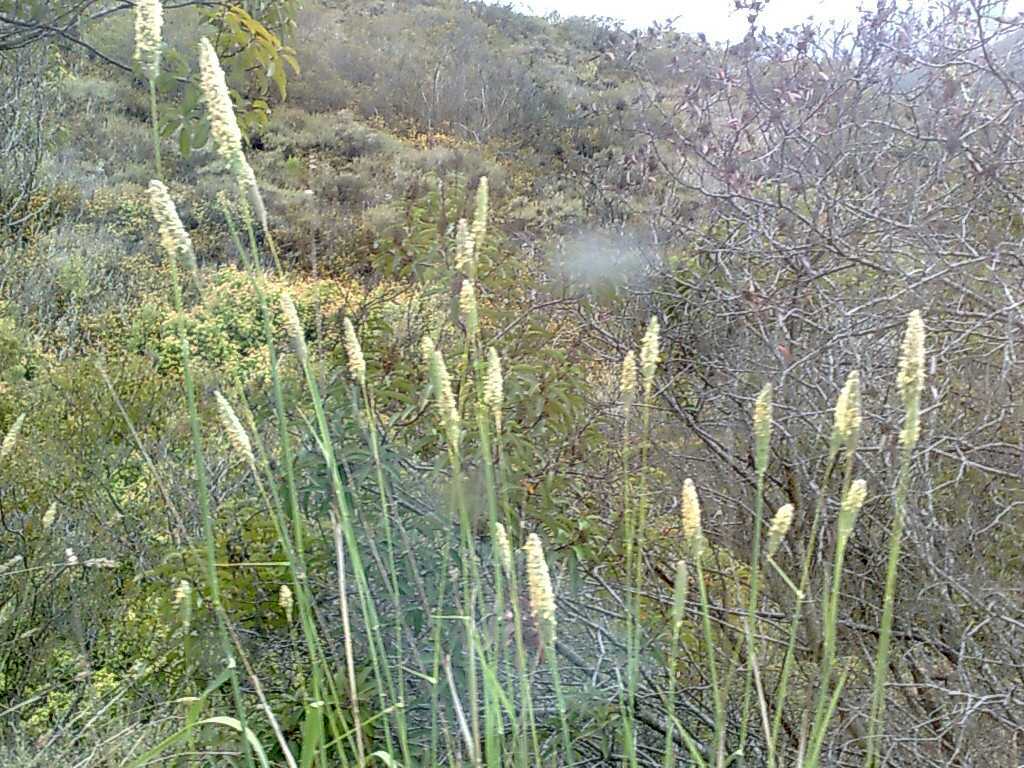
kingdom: Plantae
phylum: Tracheophyta
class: Liliopsida
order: Poales
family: Poaceae
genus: Phalaris
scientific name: Phalaris aquatica
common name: Bulbous canary-grass
